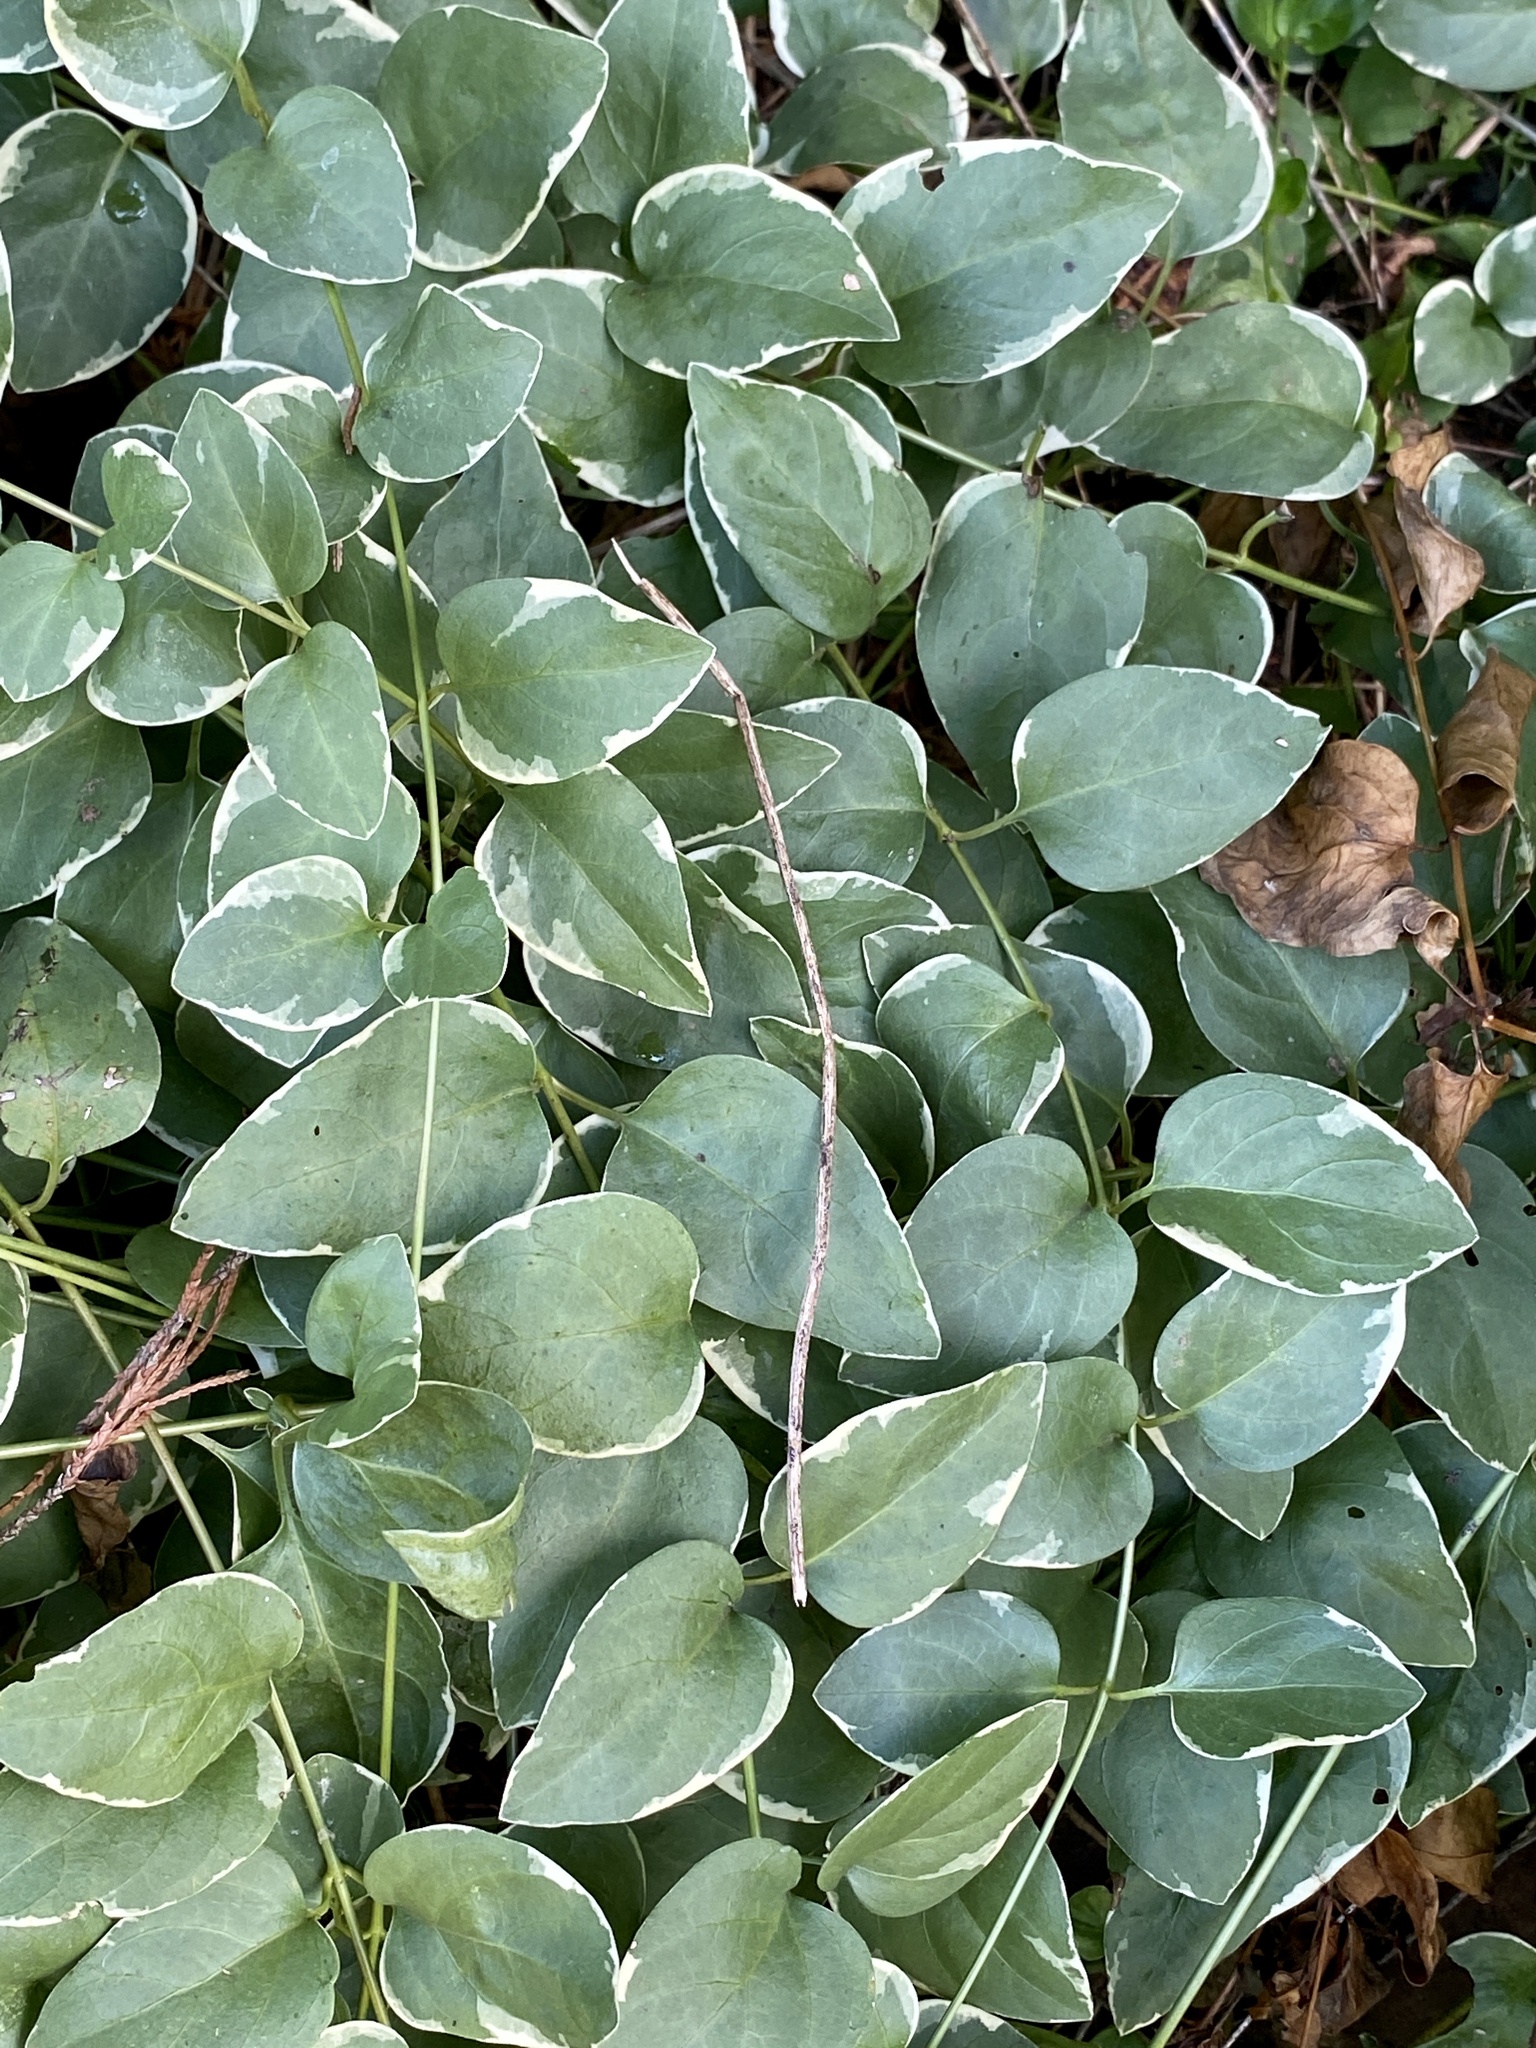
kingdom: Plantae
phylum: Tracheophyta
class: Magnoliopsida
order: Gentianales
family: Apocynaceae
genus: Vinca
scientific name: Vinca major
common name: Greater periwinkle
